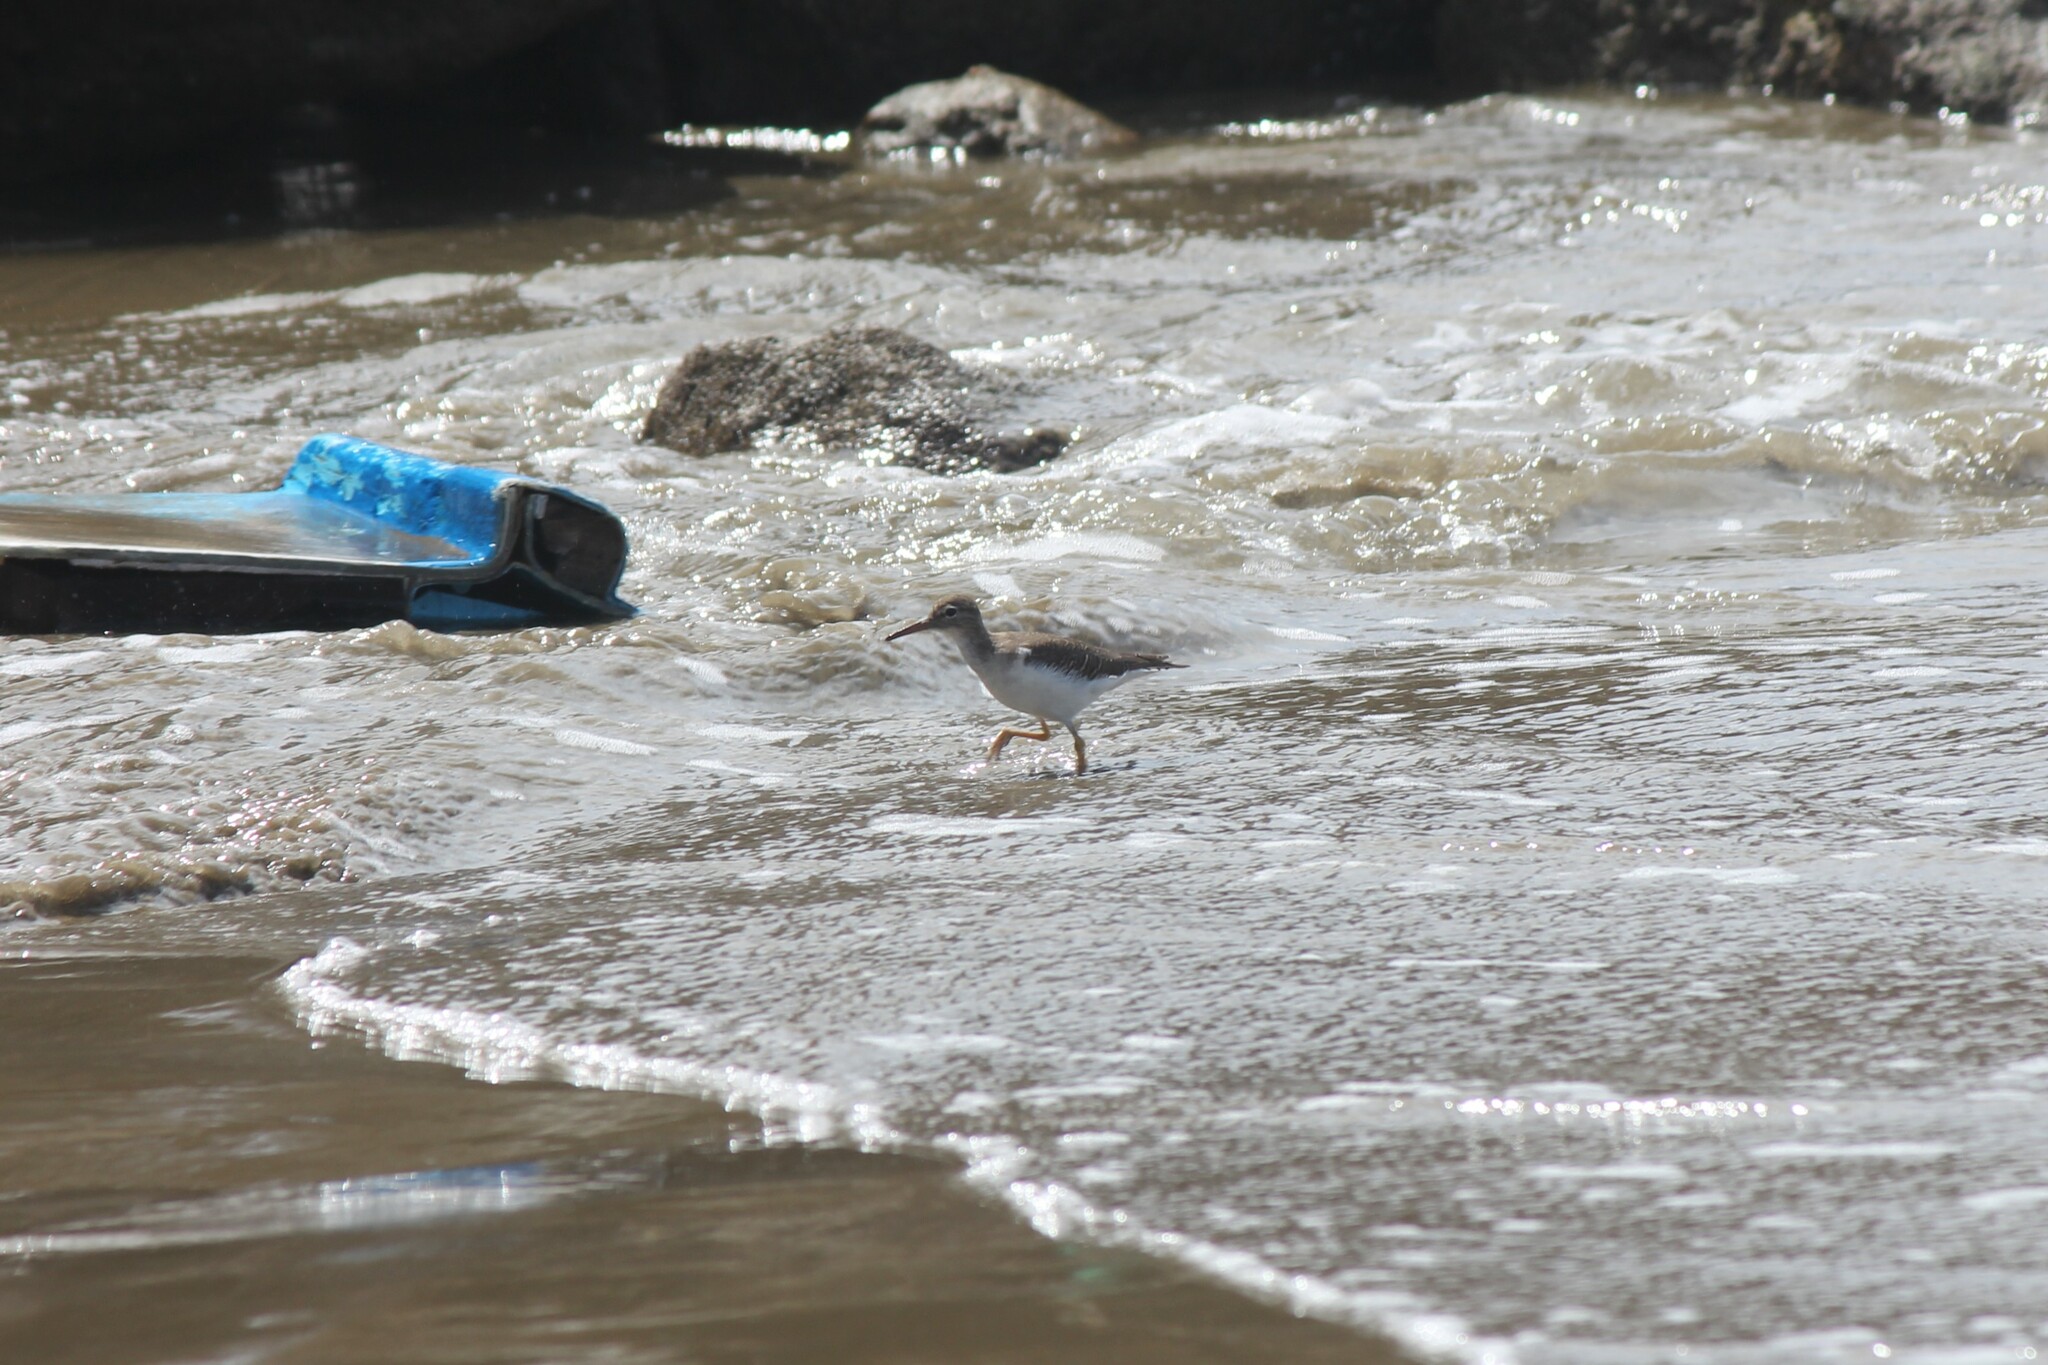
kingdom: Animalia
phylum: Chordata
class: Aves
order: Charadriiformes
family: Scolopacidae
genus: Actitis
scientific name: Actitis macularius
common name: Spotted sandpiper
